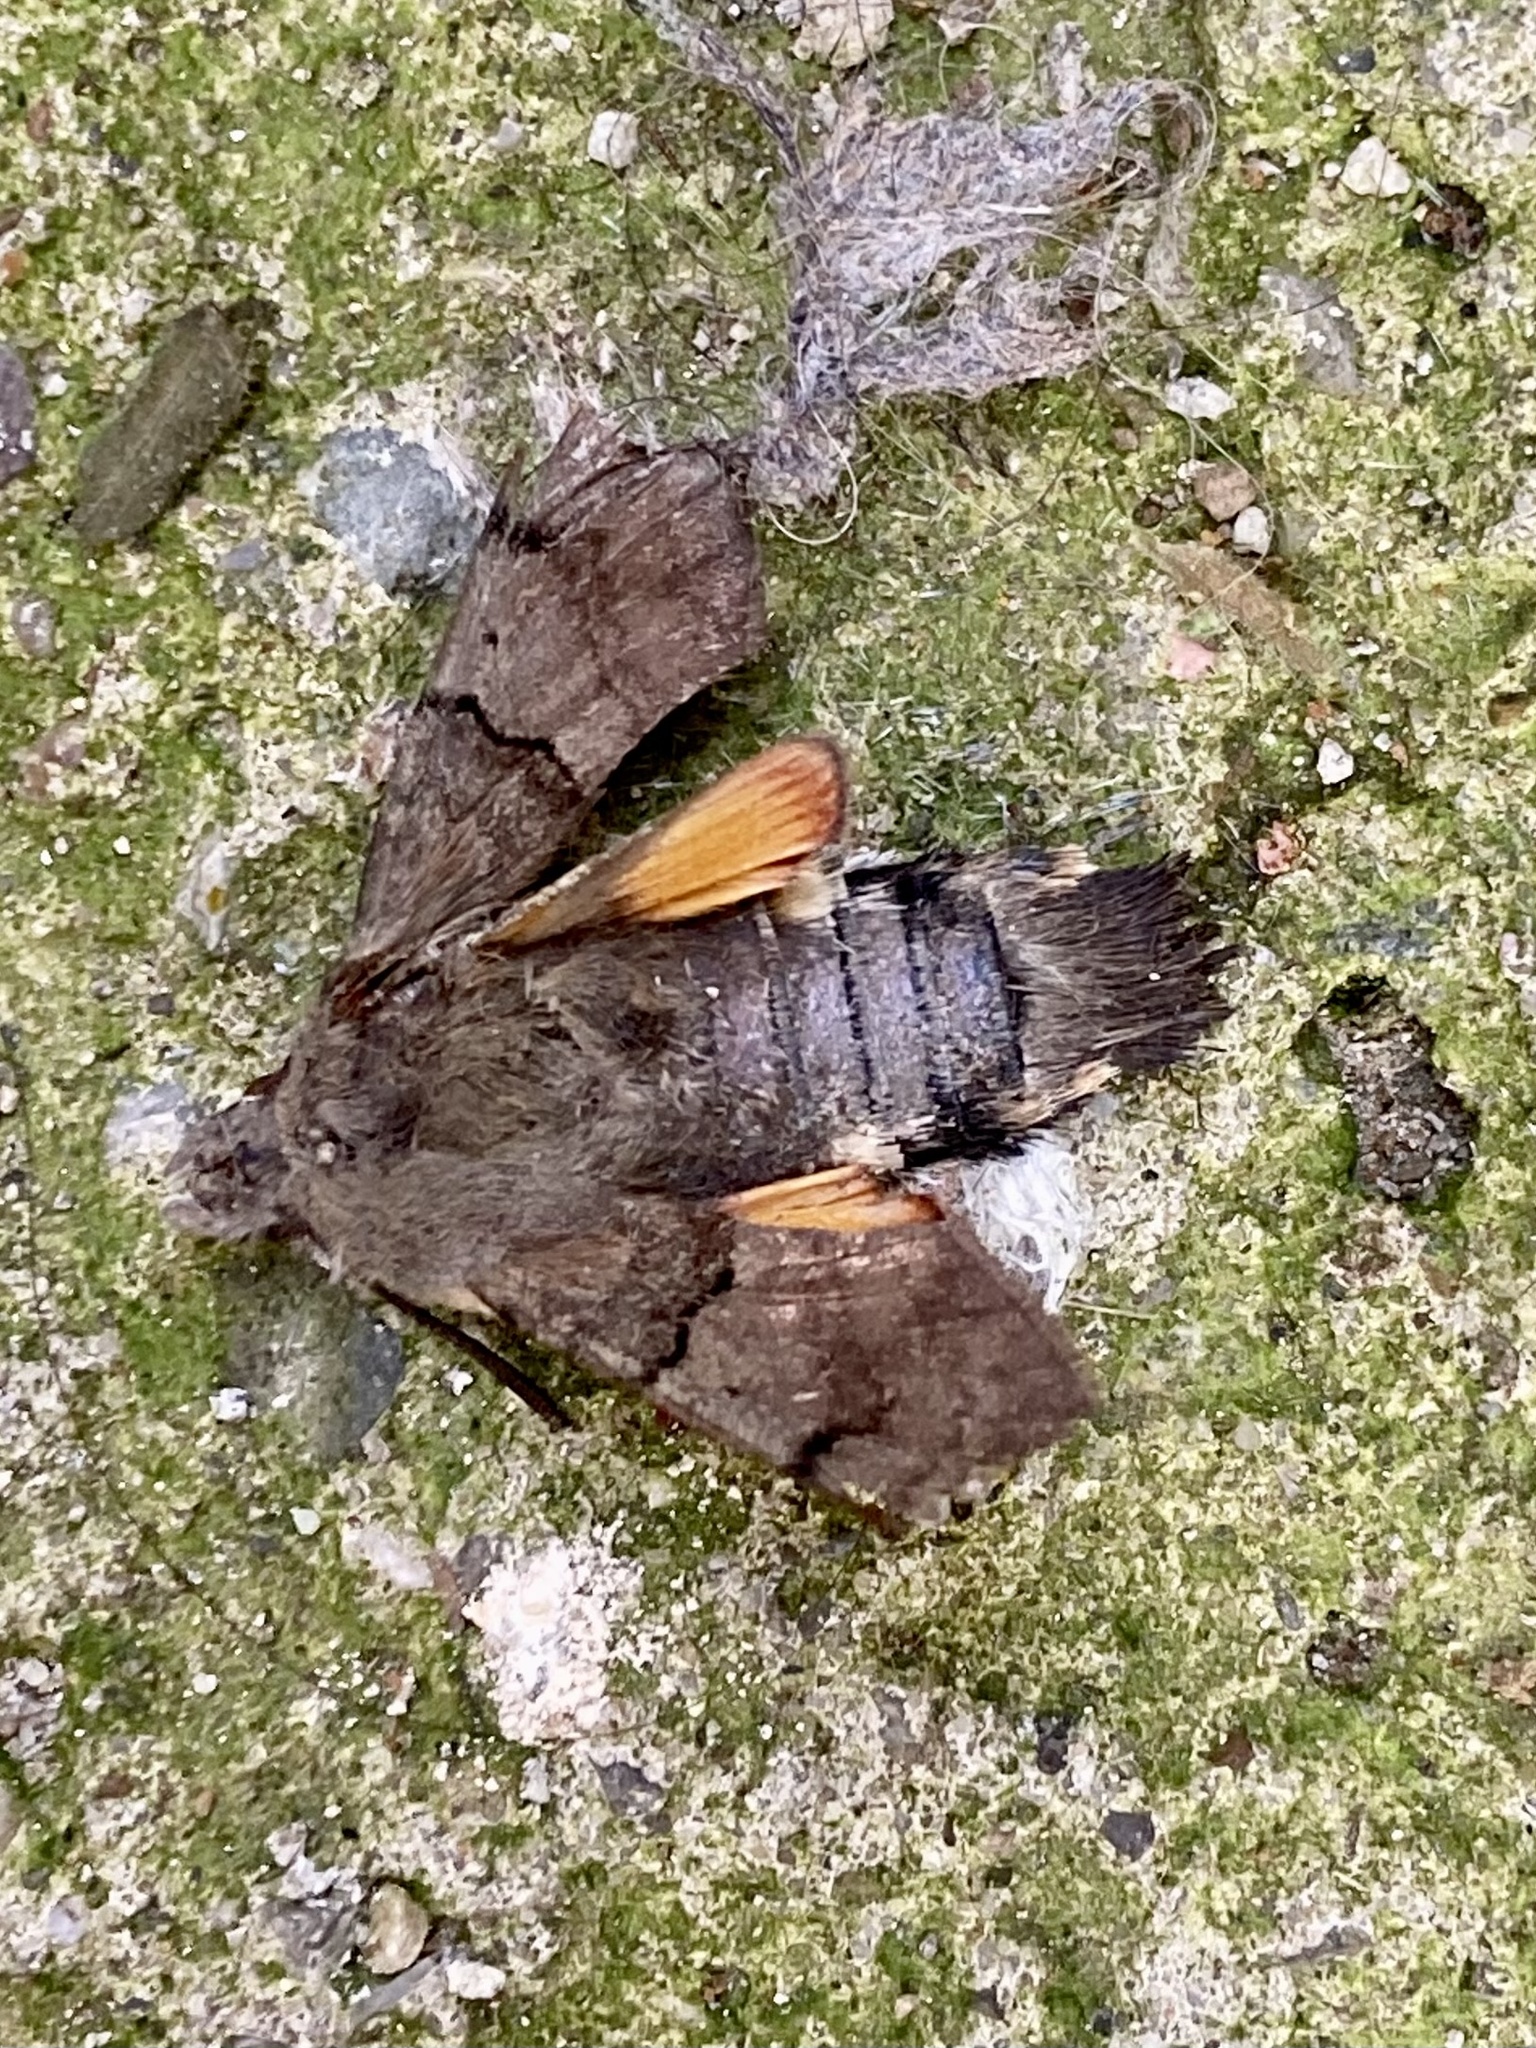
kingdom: Animalia
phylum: Arthropoda
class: Insecta
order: Lepidoptera
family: Sphingidae
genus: Macroglossum
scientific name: Macroglossum stellatarum
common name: Humming-bird hawk-moth
